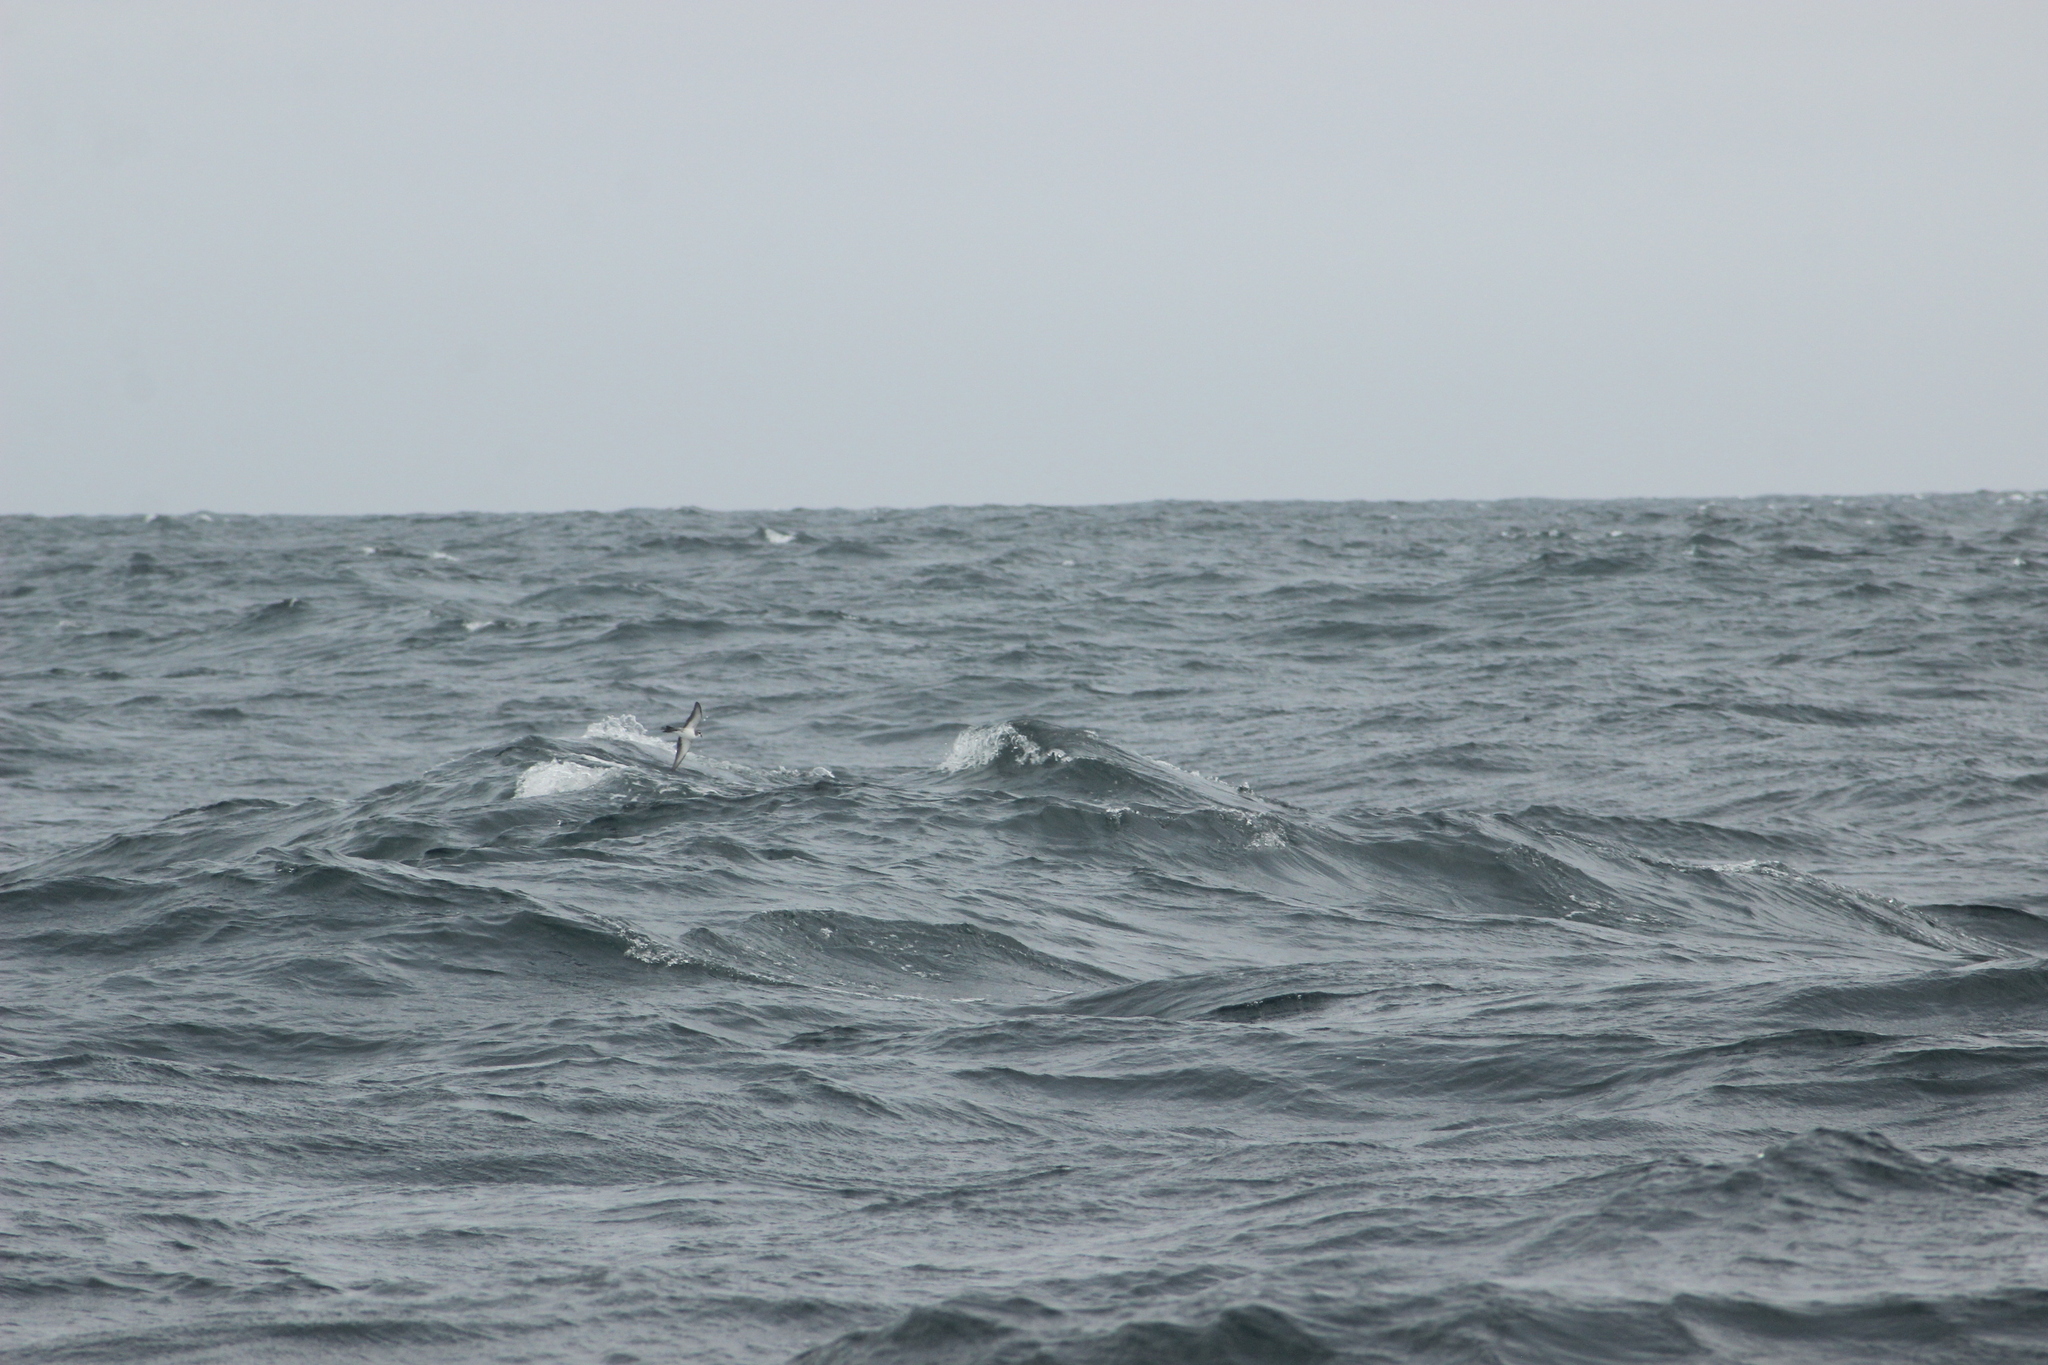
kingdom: Animalia
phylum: Chordata
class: Aves
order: Procellariiformes
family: Hydrobatidae
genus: Pelagodroma
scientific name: Pelagodroma marina
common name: White-faced storm-petrel
